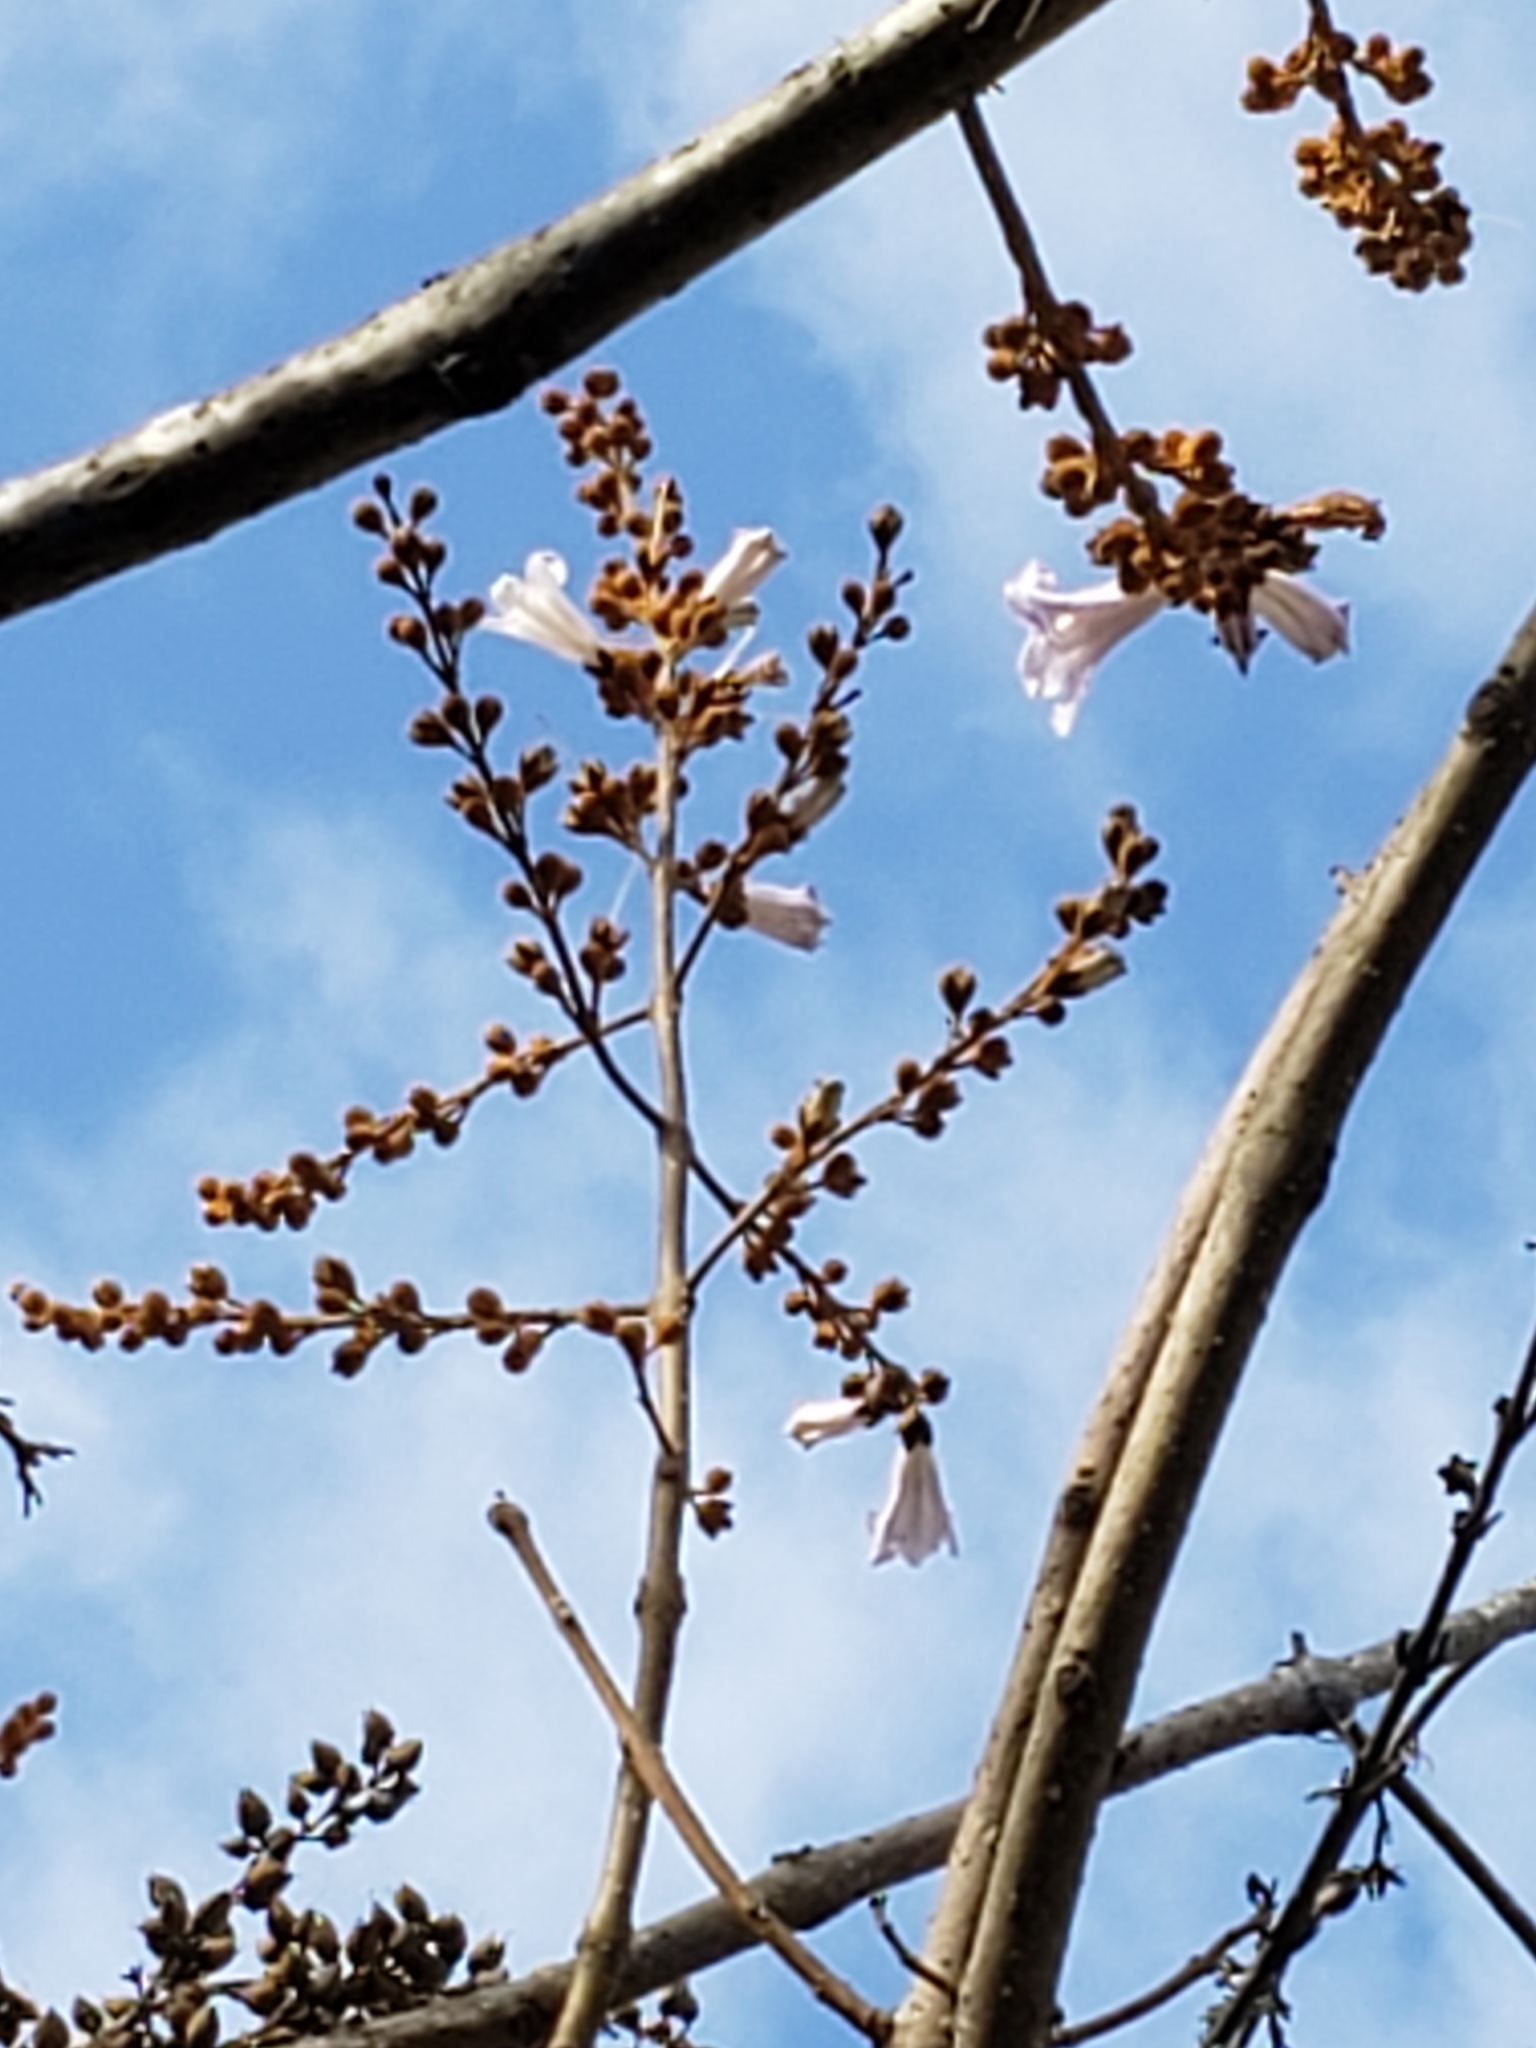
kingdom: Plantae
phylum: Tracheophyta
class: Magnoliopsida
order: Lamiales
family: Paulowniaceae
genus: Paulownia
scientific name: Paulownia tomentosa
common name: Foxglove-tree
